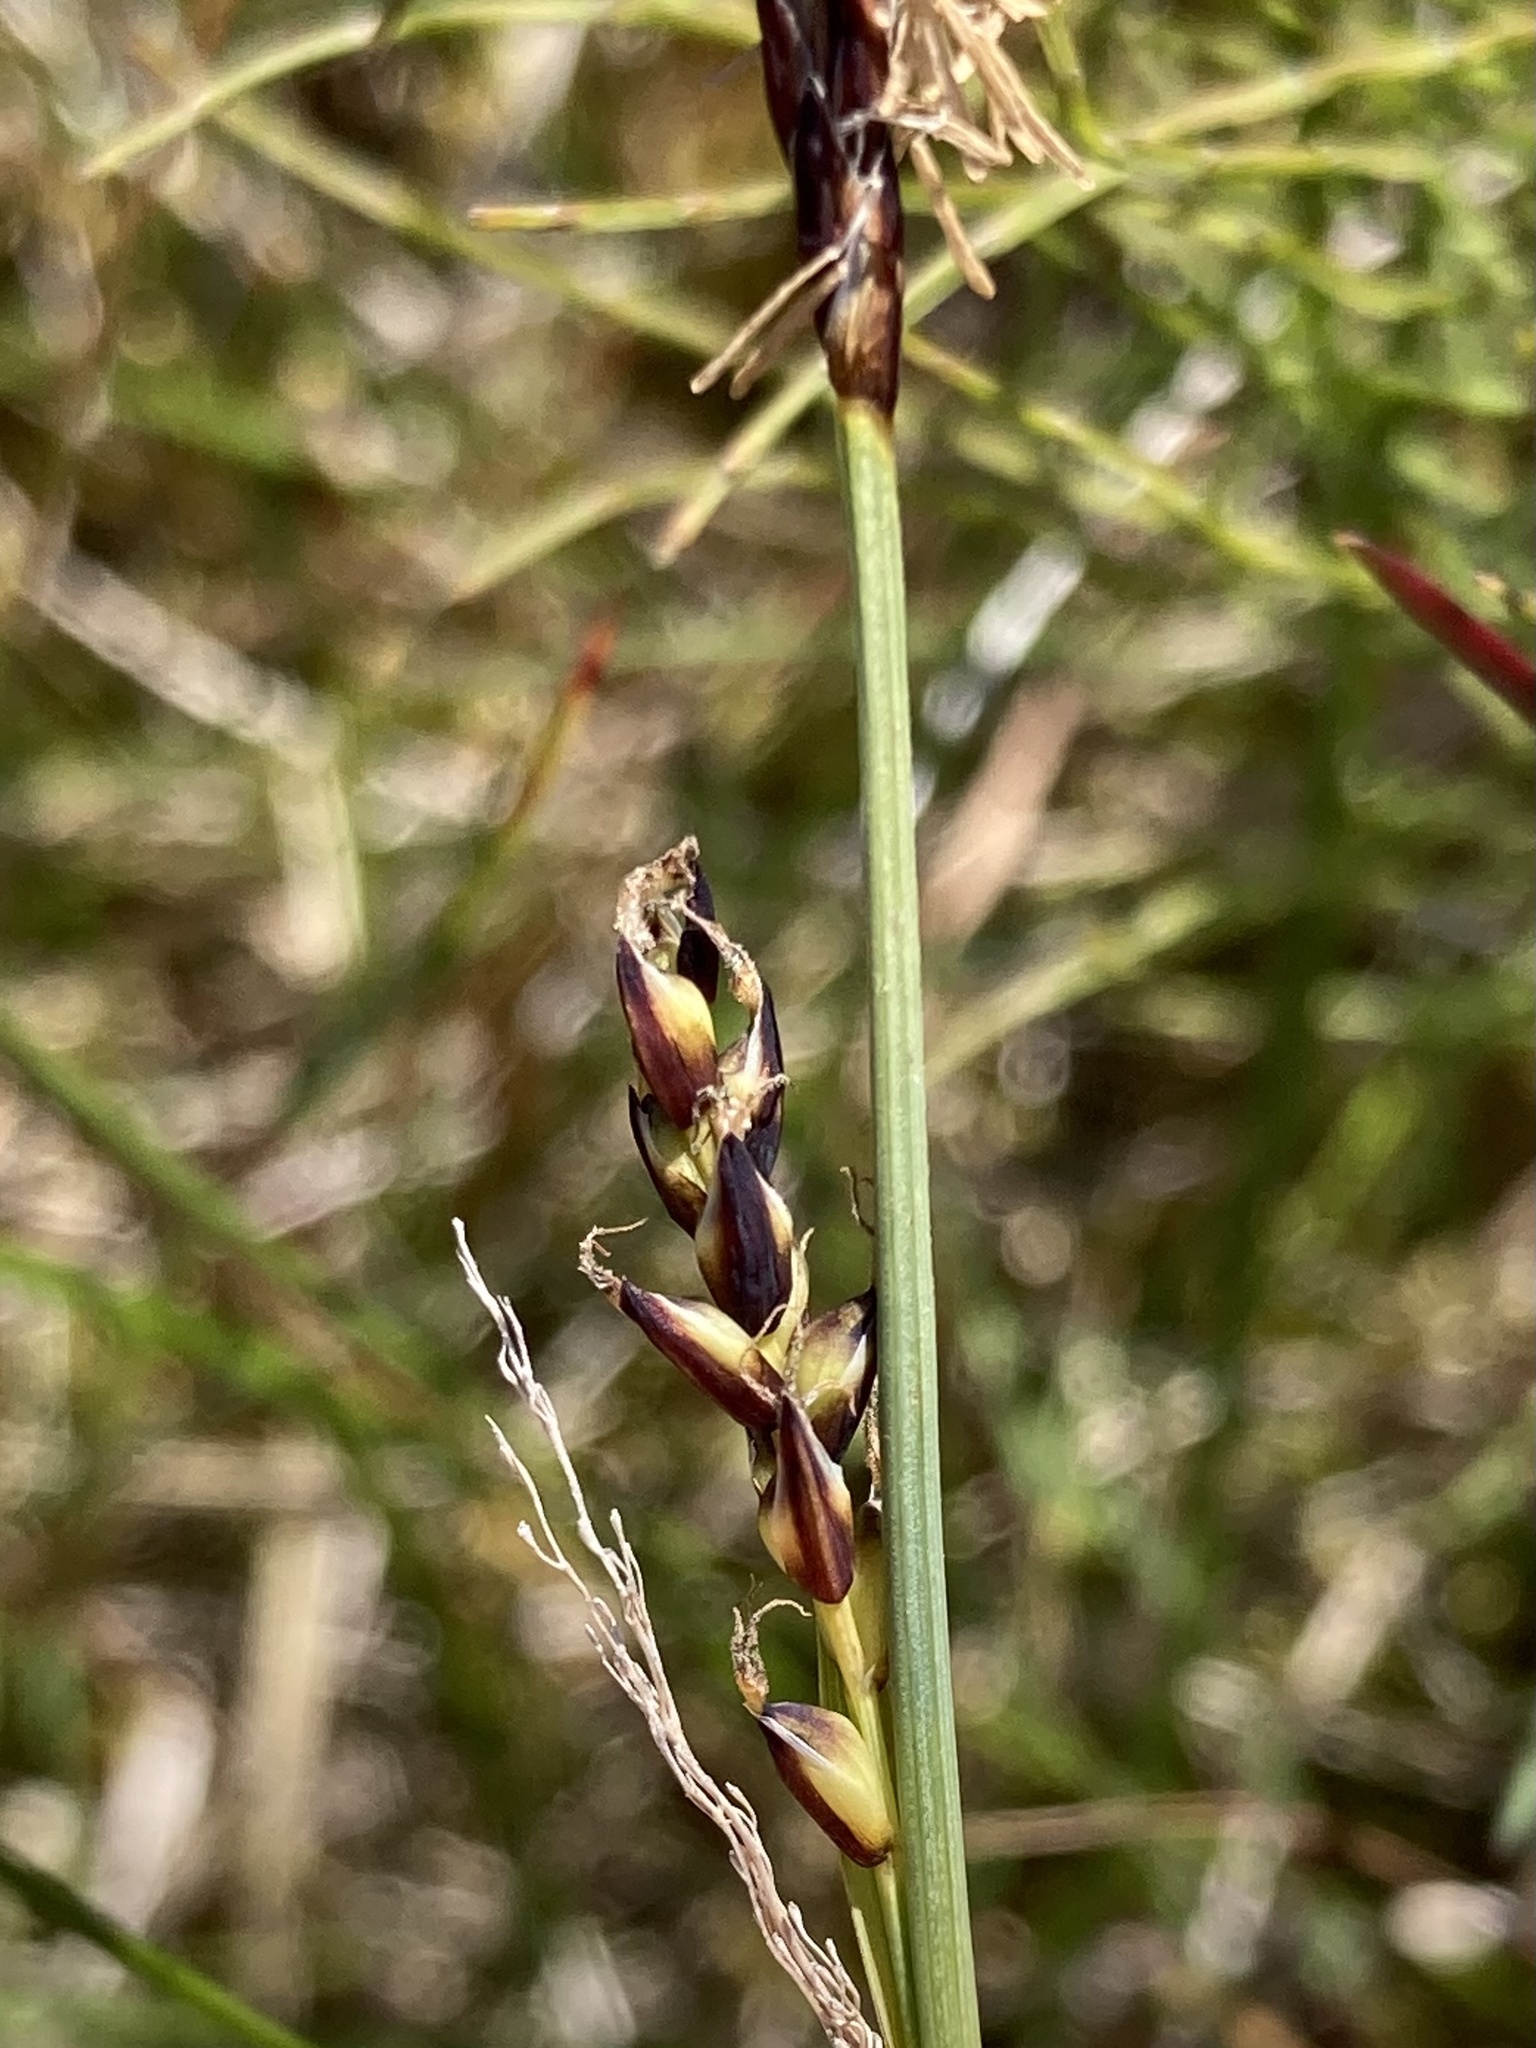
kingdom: Plantae
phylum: Tracheophyta
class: Liliopsida
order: Poales
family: Cyperaceae
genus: Carex
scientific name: Carex panicea
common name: Carnation sedge
